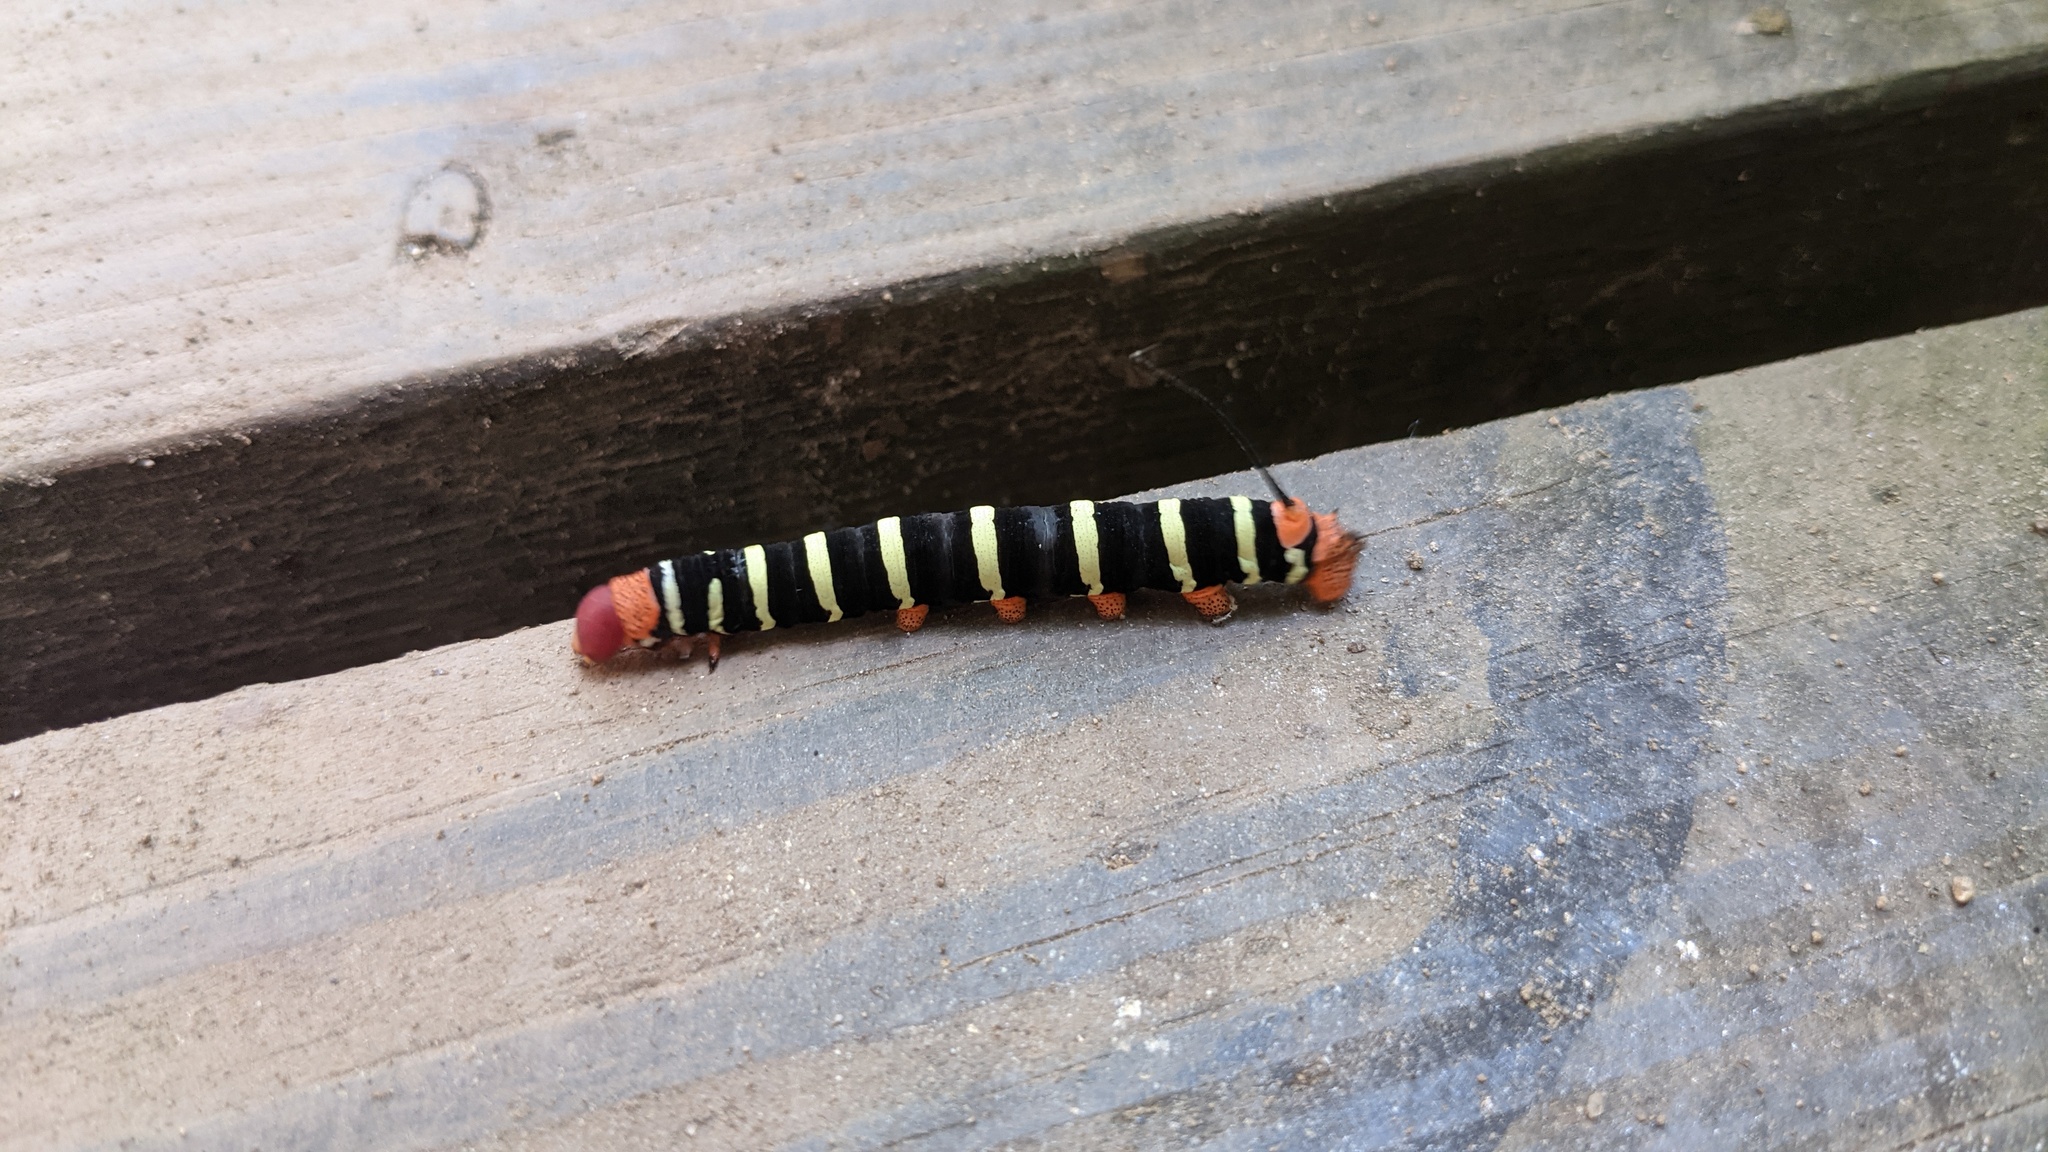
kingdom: Animalia
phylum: Arthropoda
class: Insecta
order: Lepidoptera
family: Sphingidae
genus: Pseudosphinx
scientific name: Pseudosphinx tetrio
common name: Tetrio sphinx
